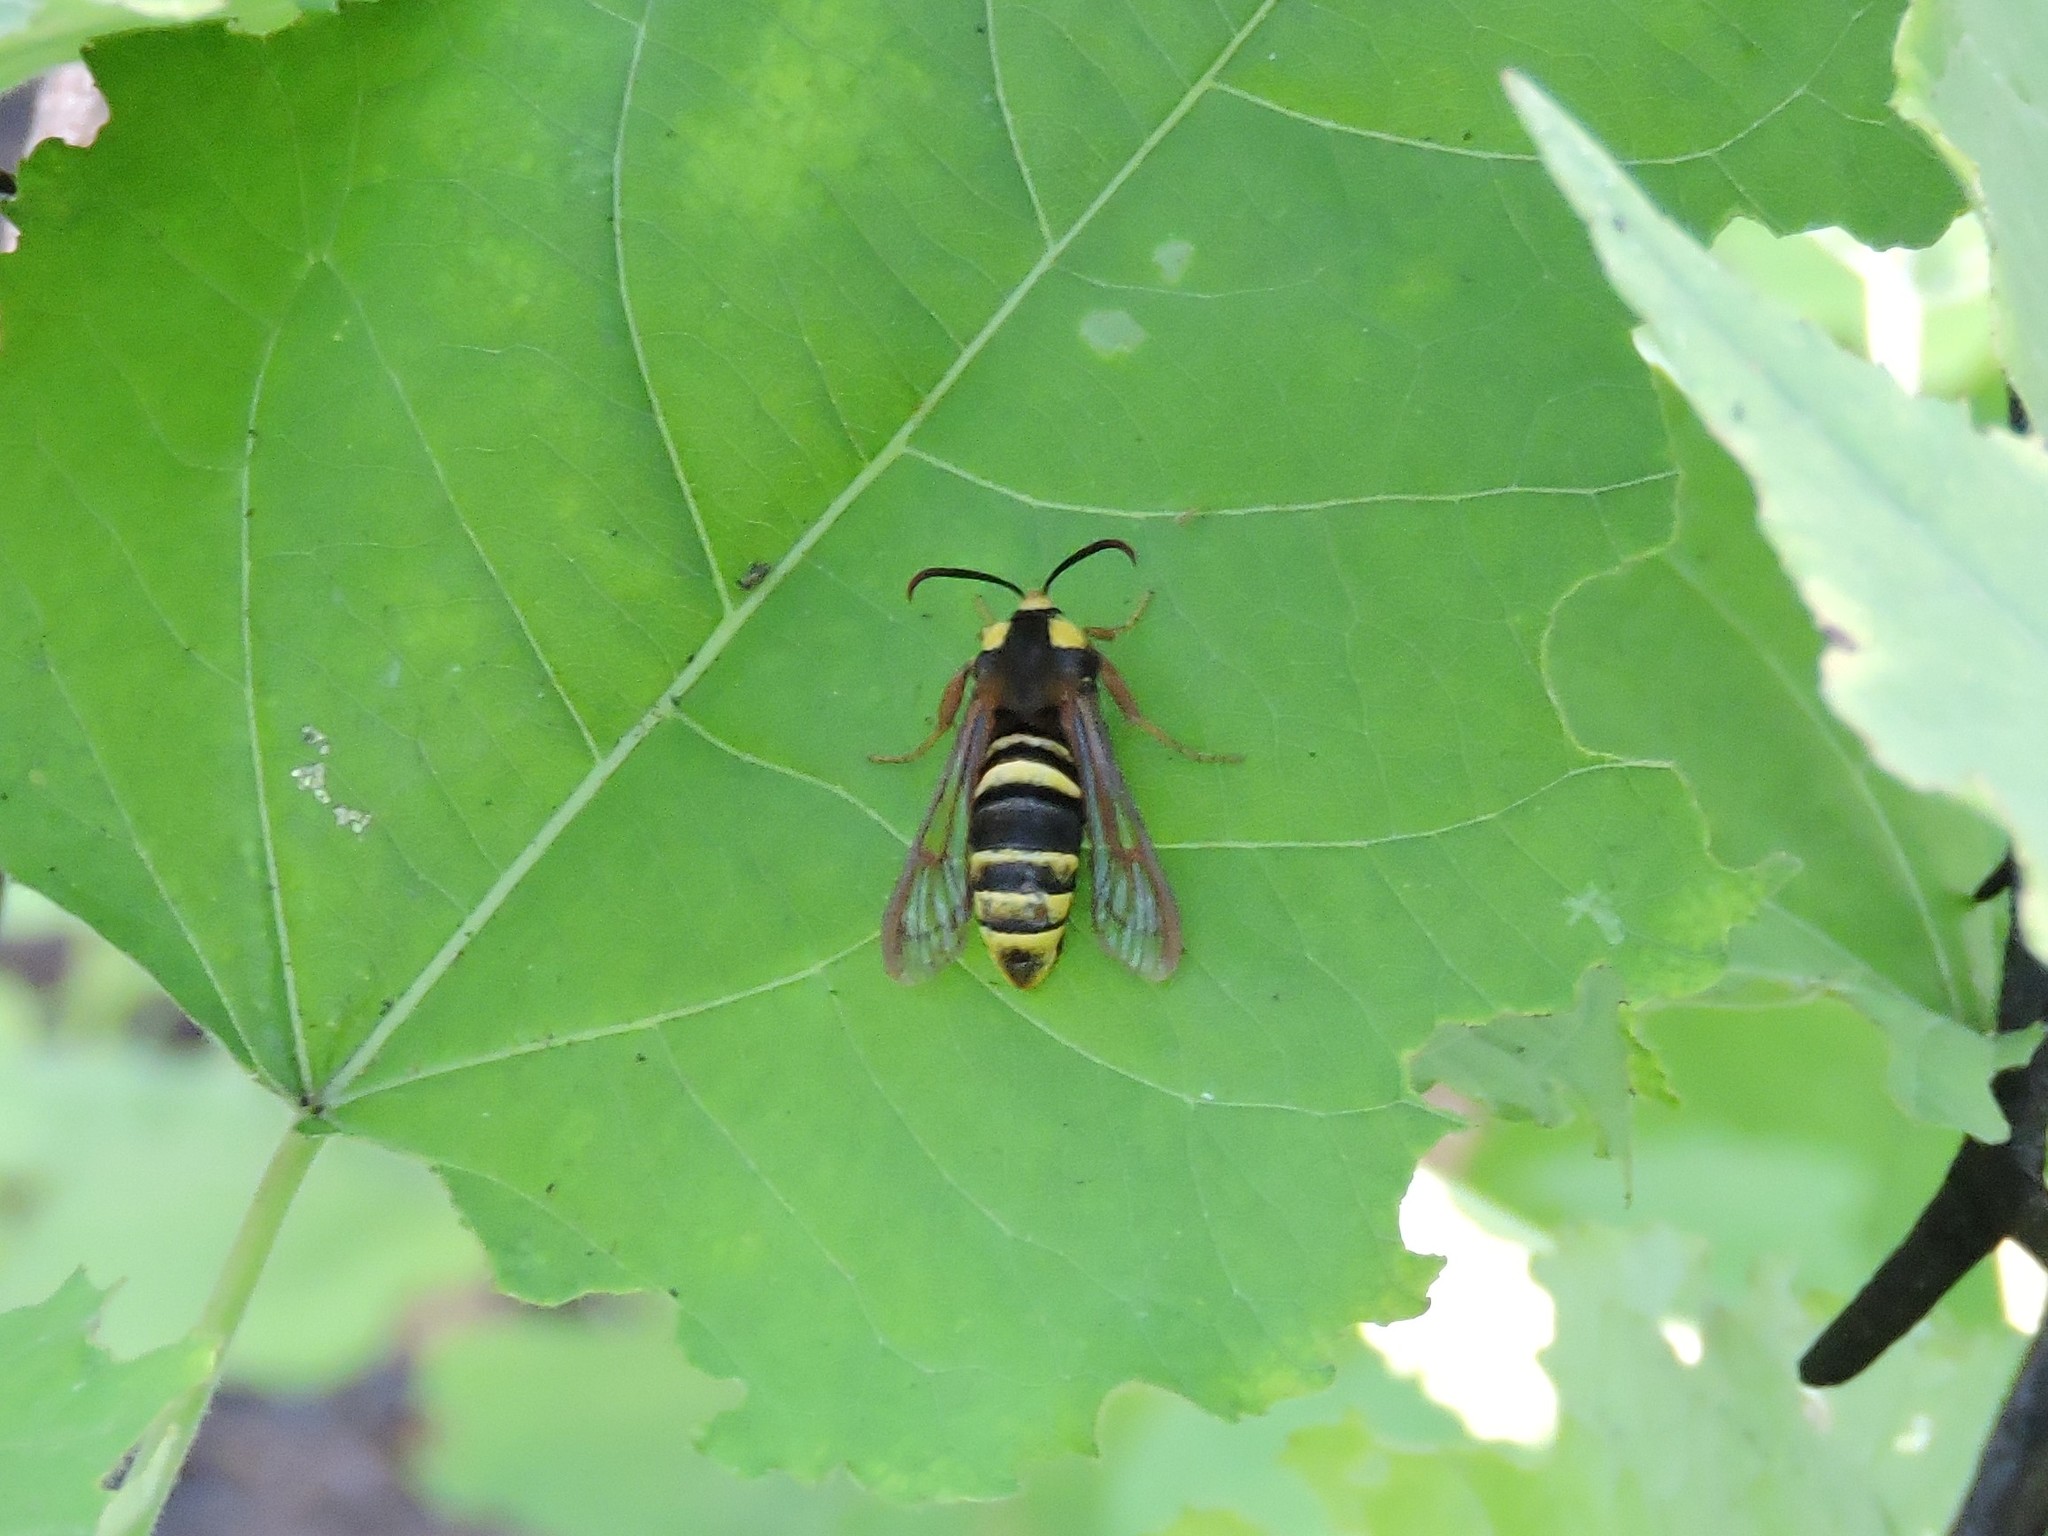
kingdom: Animalia
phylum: Arthropoda
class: Insecta
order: Lepidoptera
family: Sesiidae
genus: Sesia
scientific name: Sesia apiformis
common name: Hornet moth
